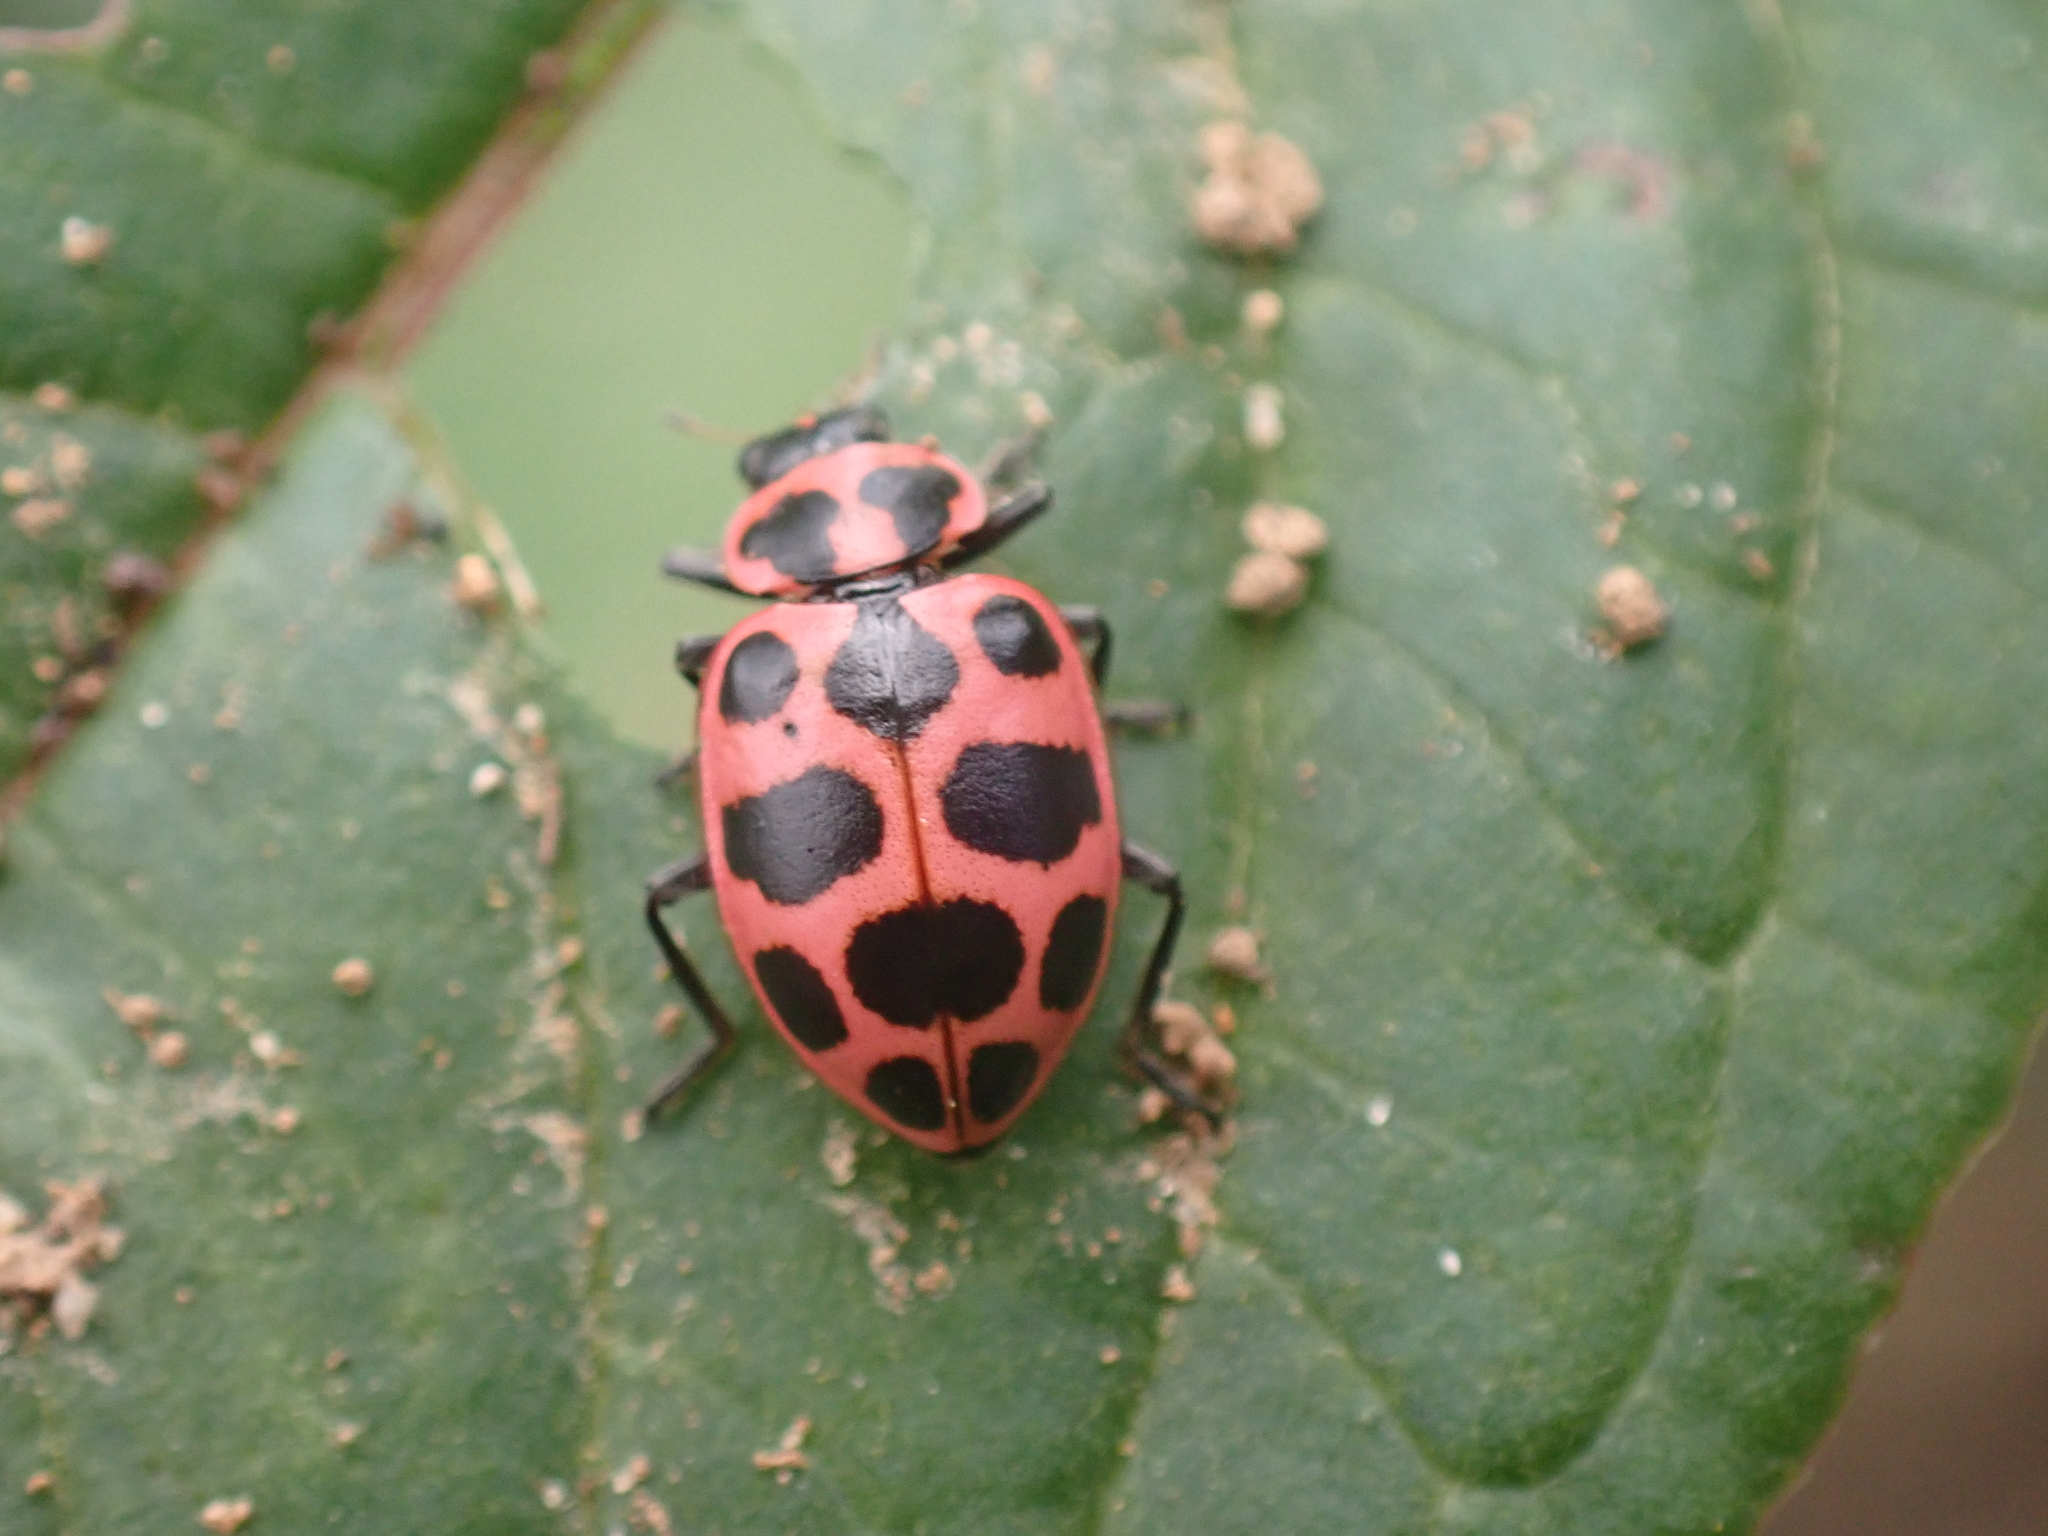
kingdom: Animalia
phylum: Arthropoda
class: Insecta
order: Coleoptera
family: Coccinellidae
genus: Coleomegilla
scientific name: Coleomegilla maculata
